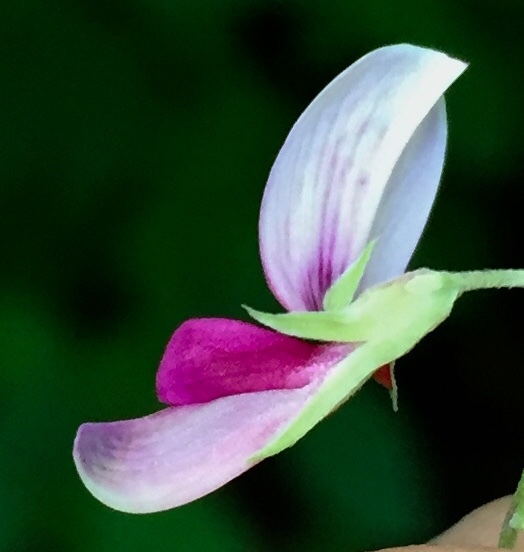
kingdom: Plantae
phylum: Tracheophyta
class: Magnoliopsida
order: Fabales
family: Fabaceae
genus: Lespedeza
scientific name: Lespedeza bicolor
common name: Shrub lespedeza
